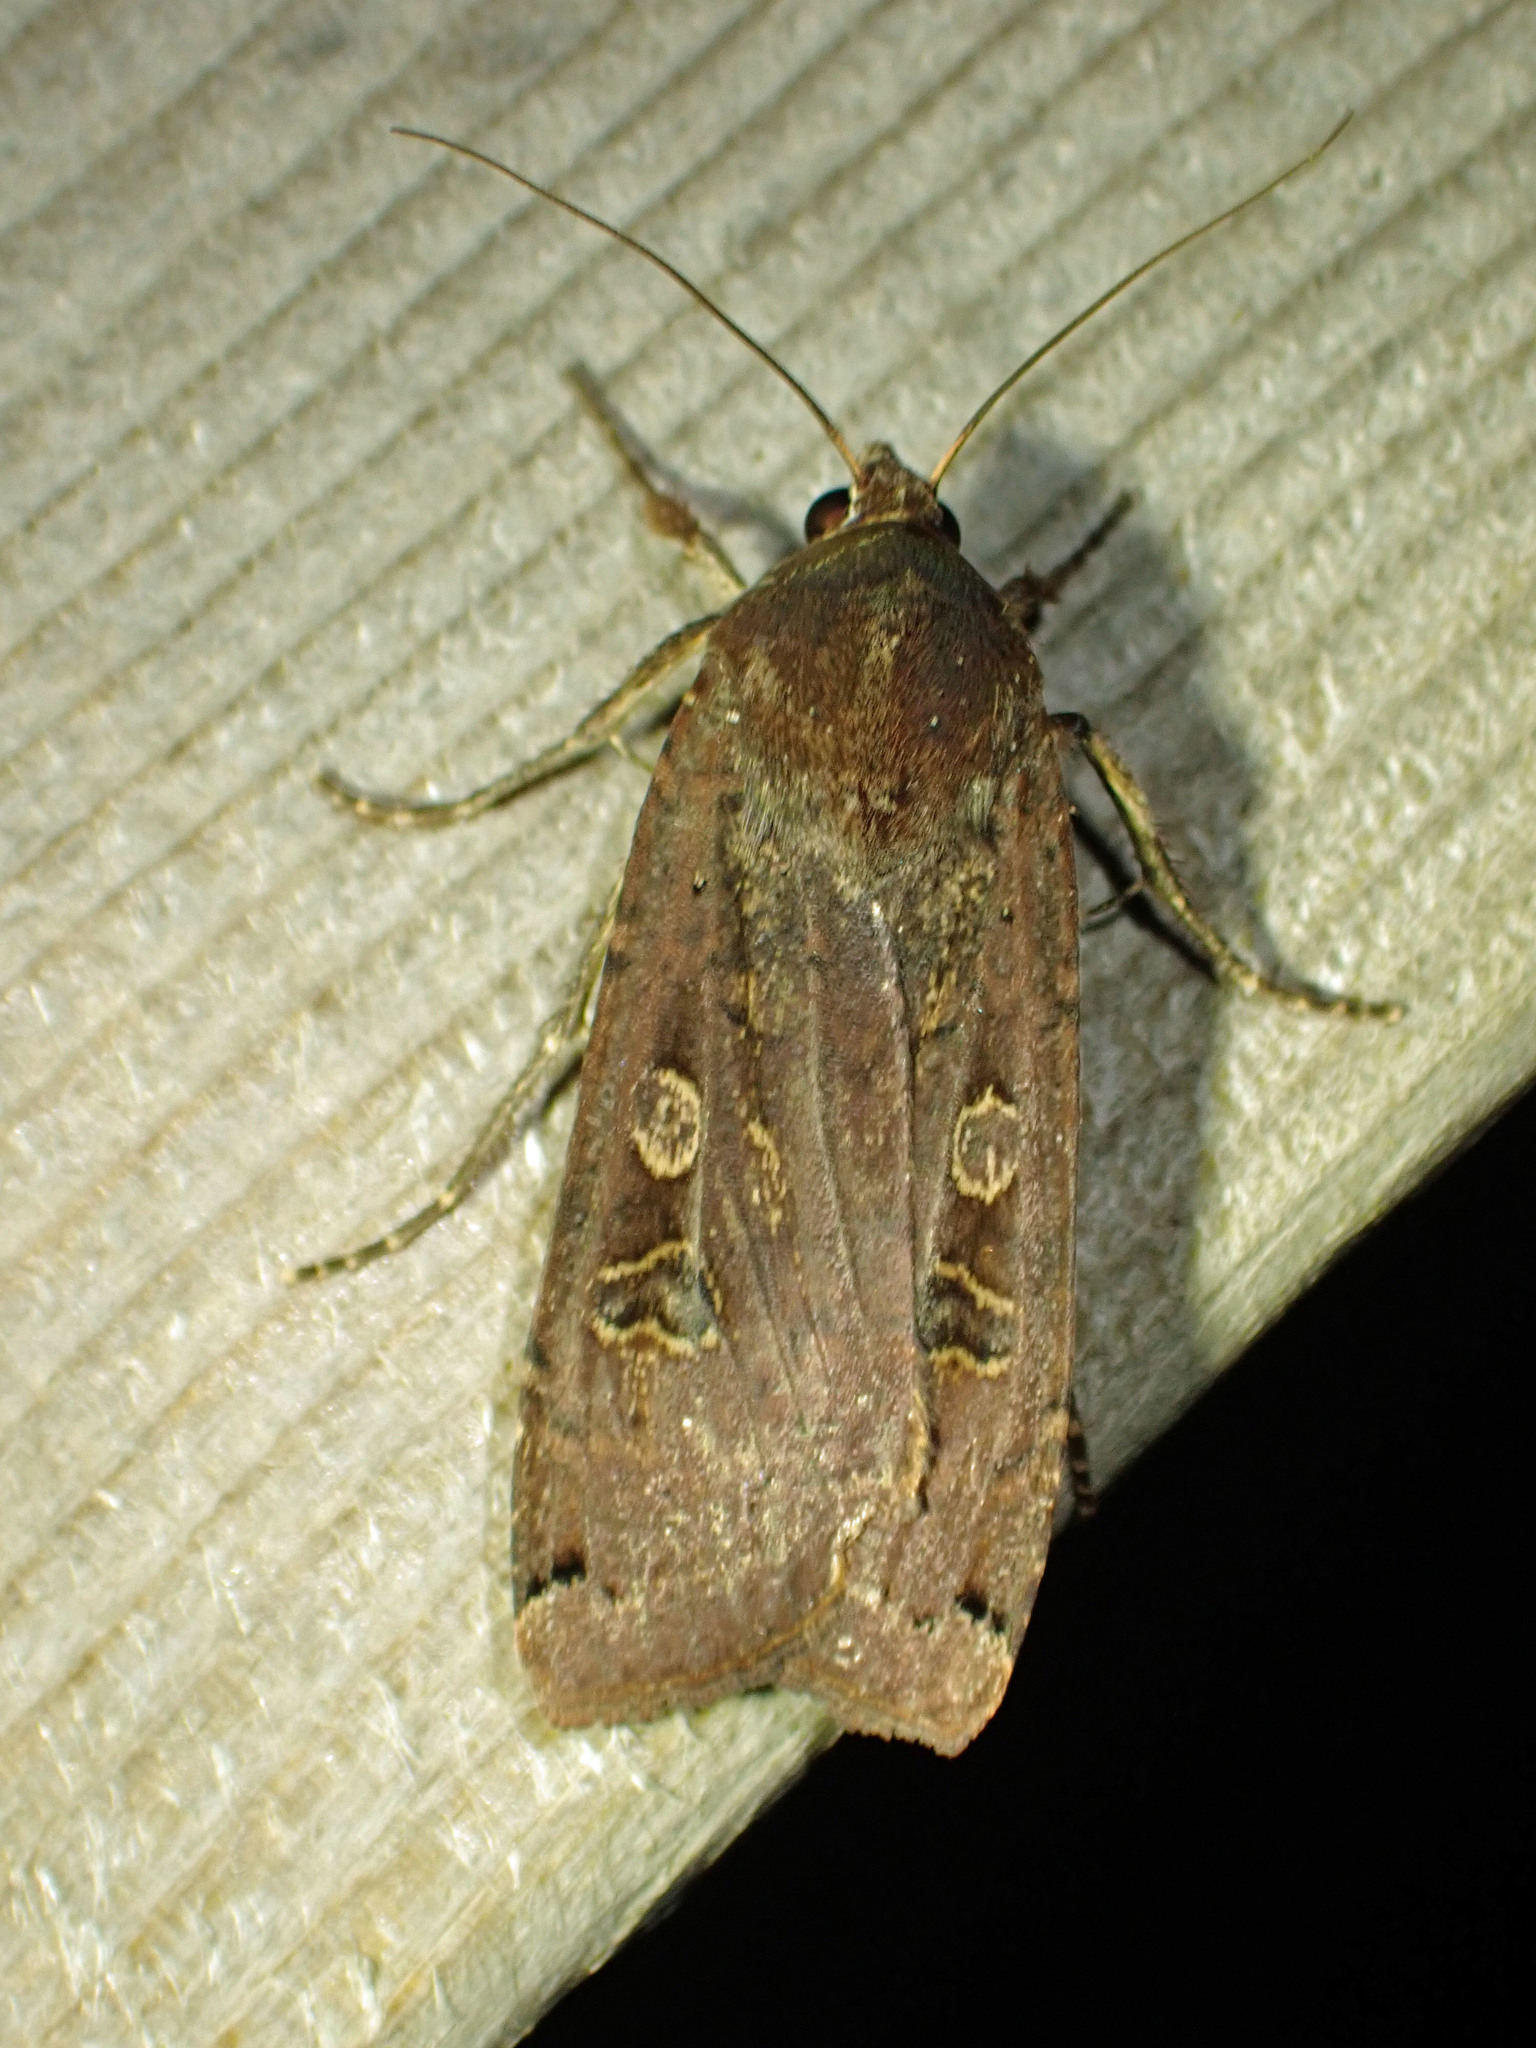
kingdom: Animalia
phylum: Arthropoda
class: Insecta
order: Lepidoptera
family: Noctuidae
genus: Noctua
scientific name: Noctua pronuba
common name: Large yellow underwing
